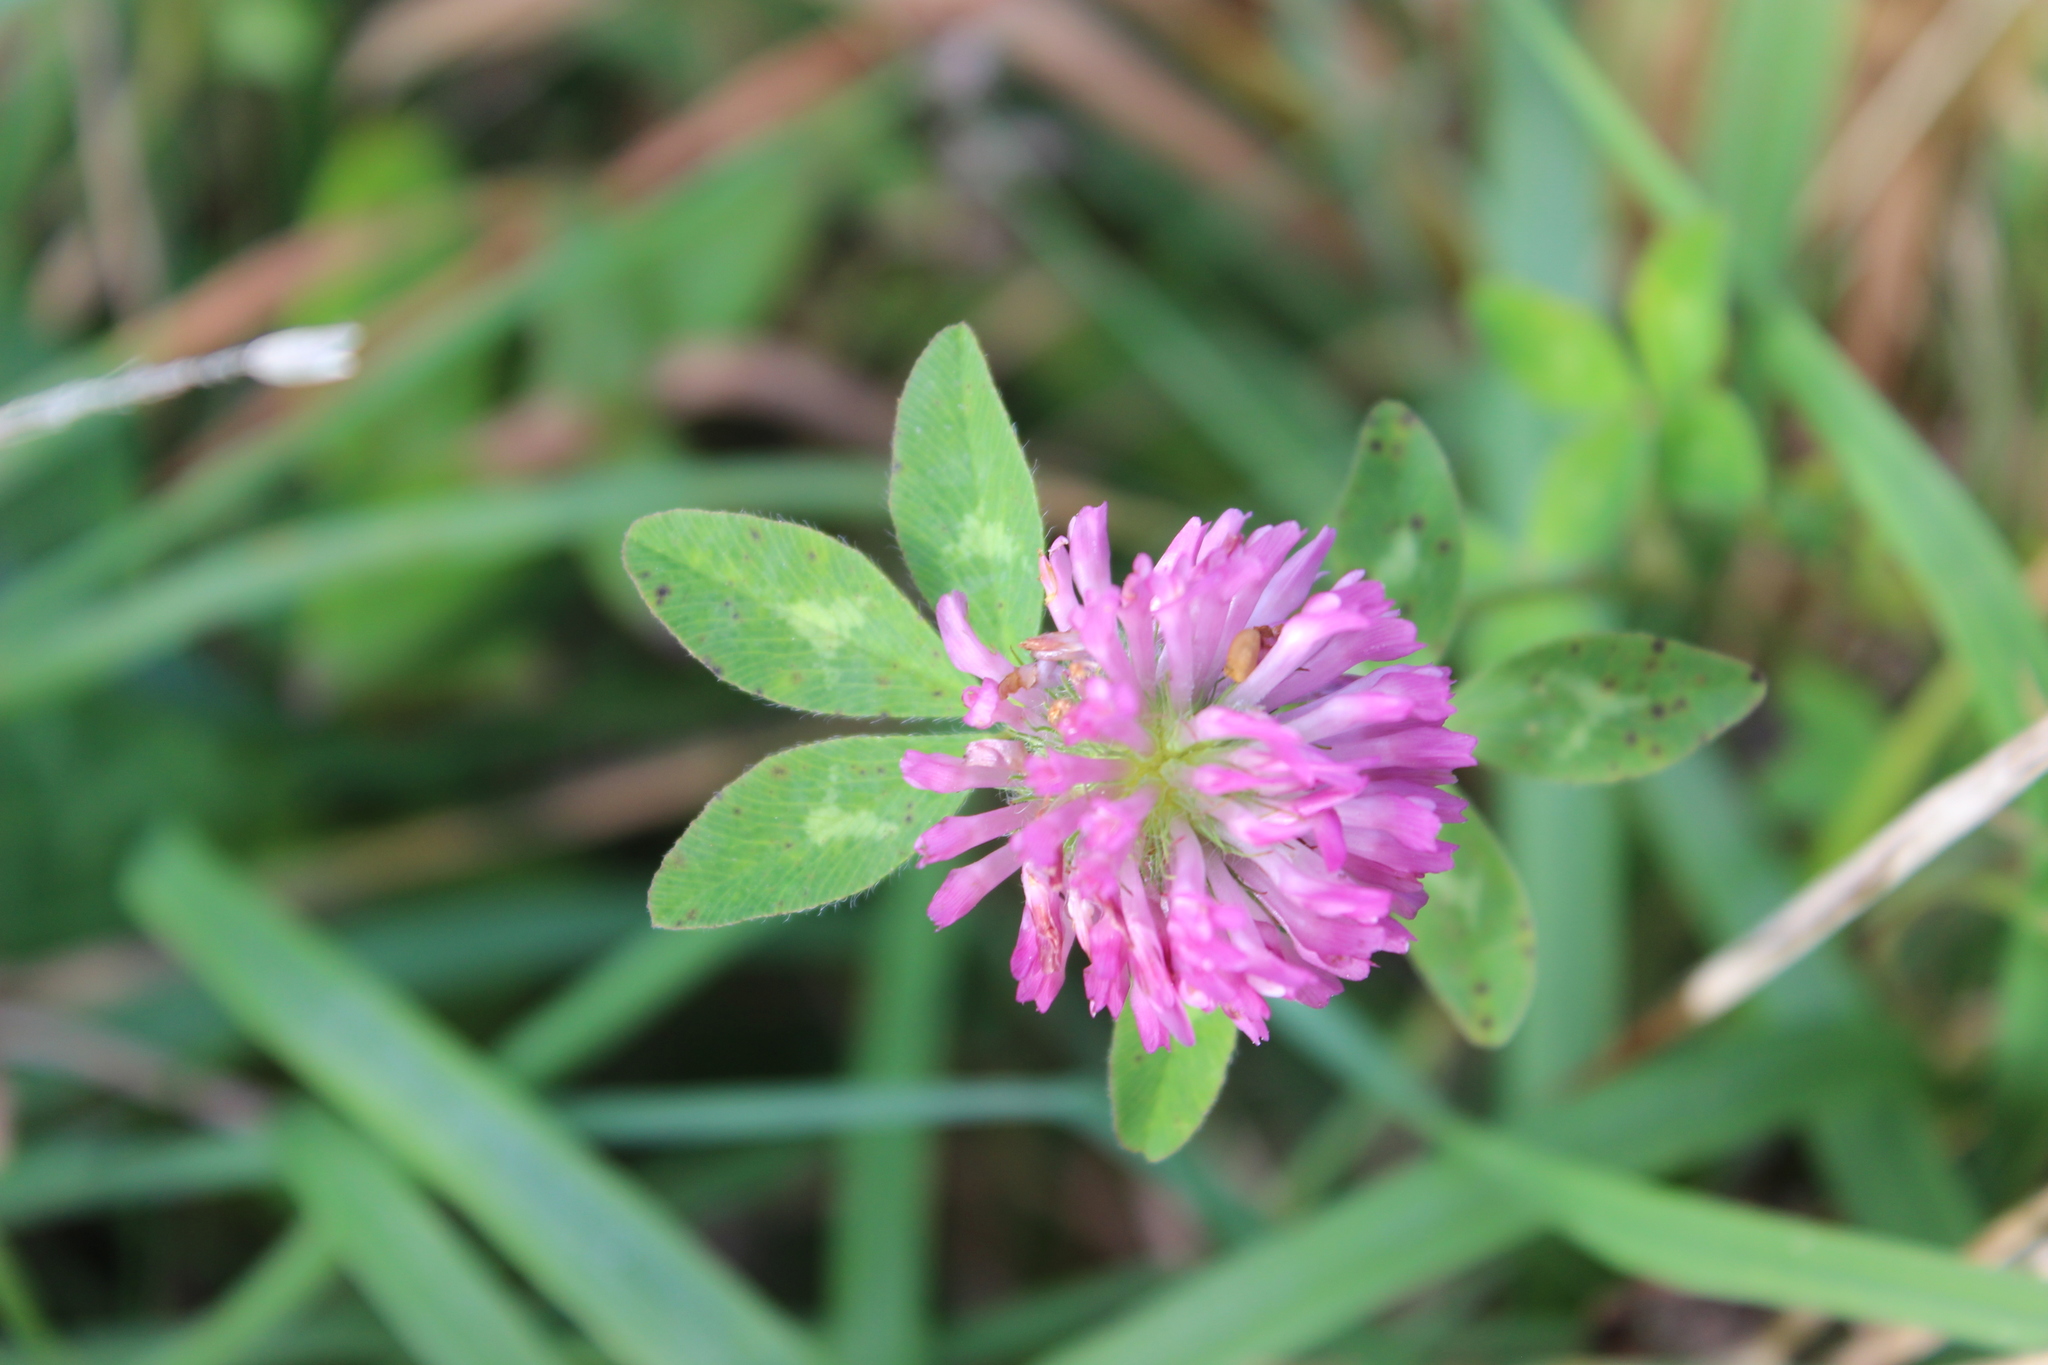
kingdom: Plantae
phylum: Tracheophyta
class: Magnoliopsida
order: Fabales
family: Fabaceae
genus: Trifolium
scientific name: Trifolium pratense
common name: Red clover
